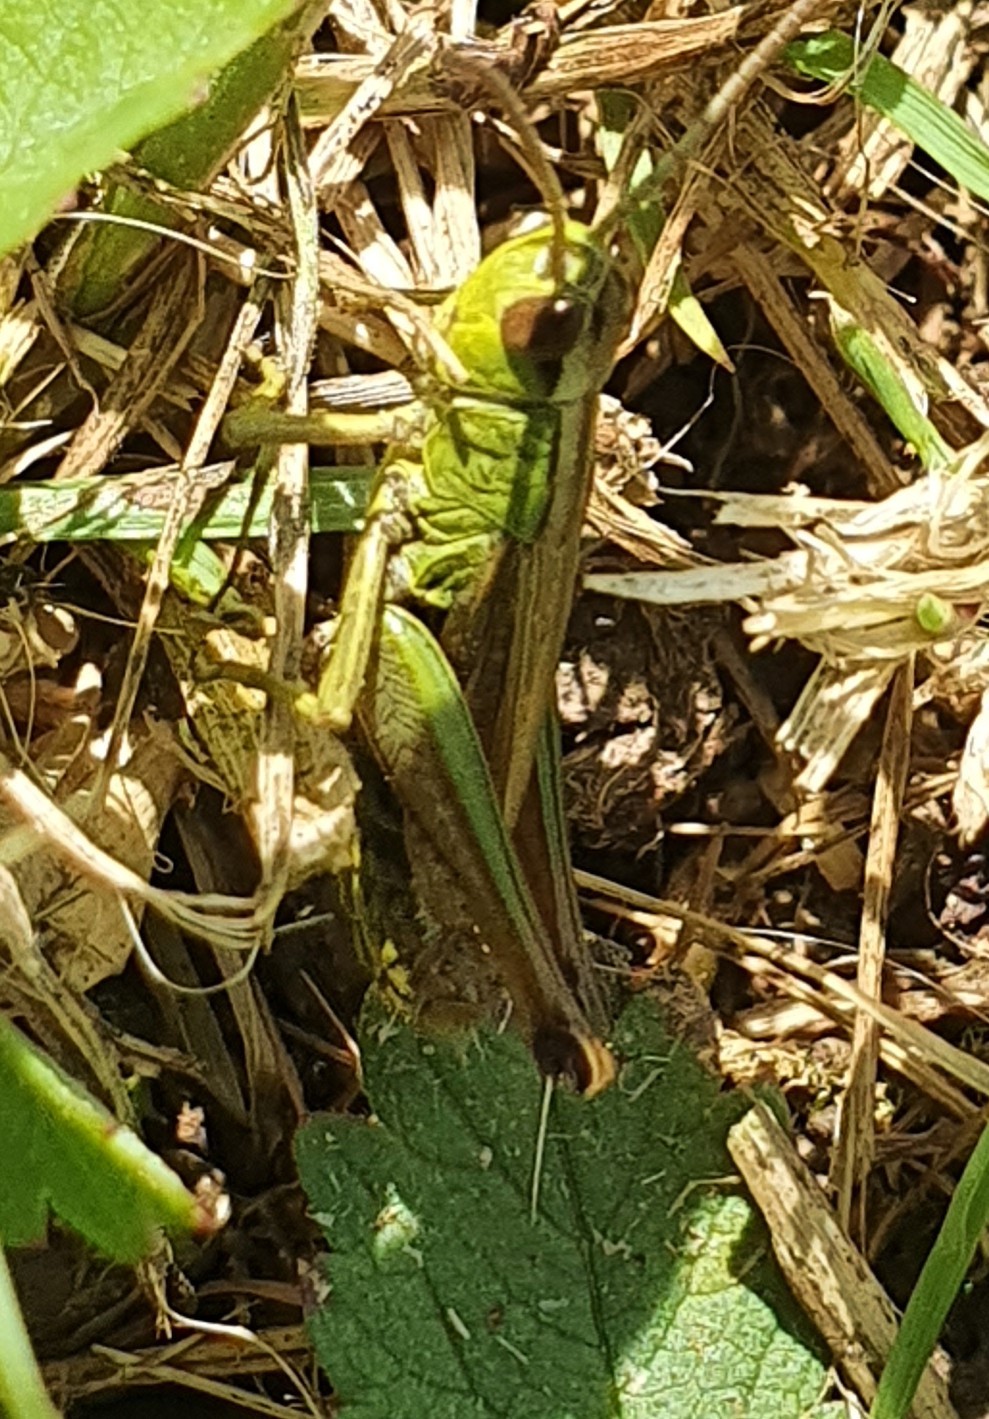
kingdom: Animalia
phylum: Arthropoda
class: Insecta
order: Orthoptera
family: Acrididae
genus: Pseudochorthippus
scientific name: Pseudochorthippus parallelus
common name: Meadow grasshopper
